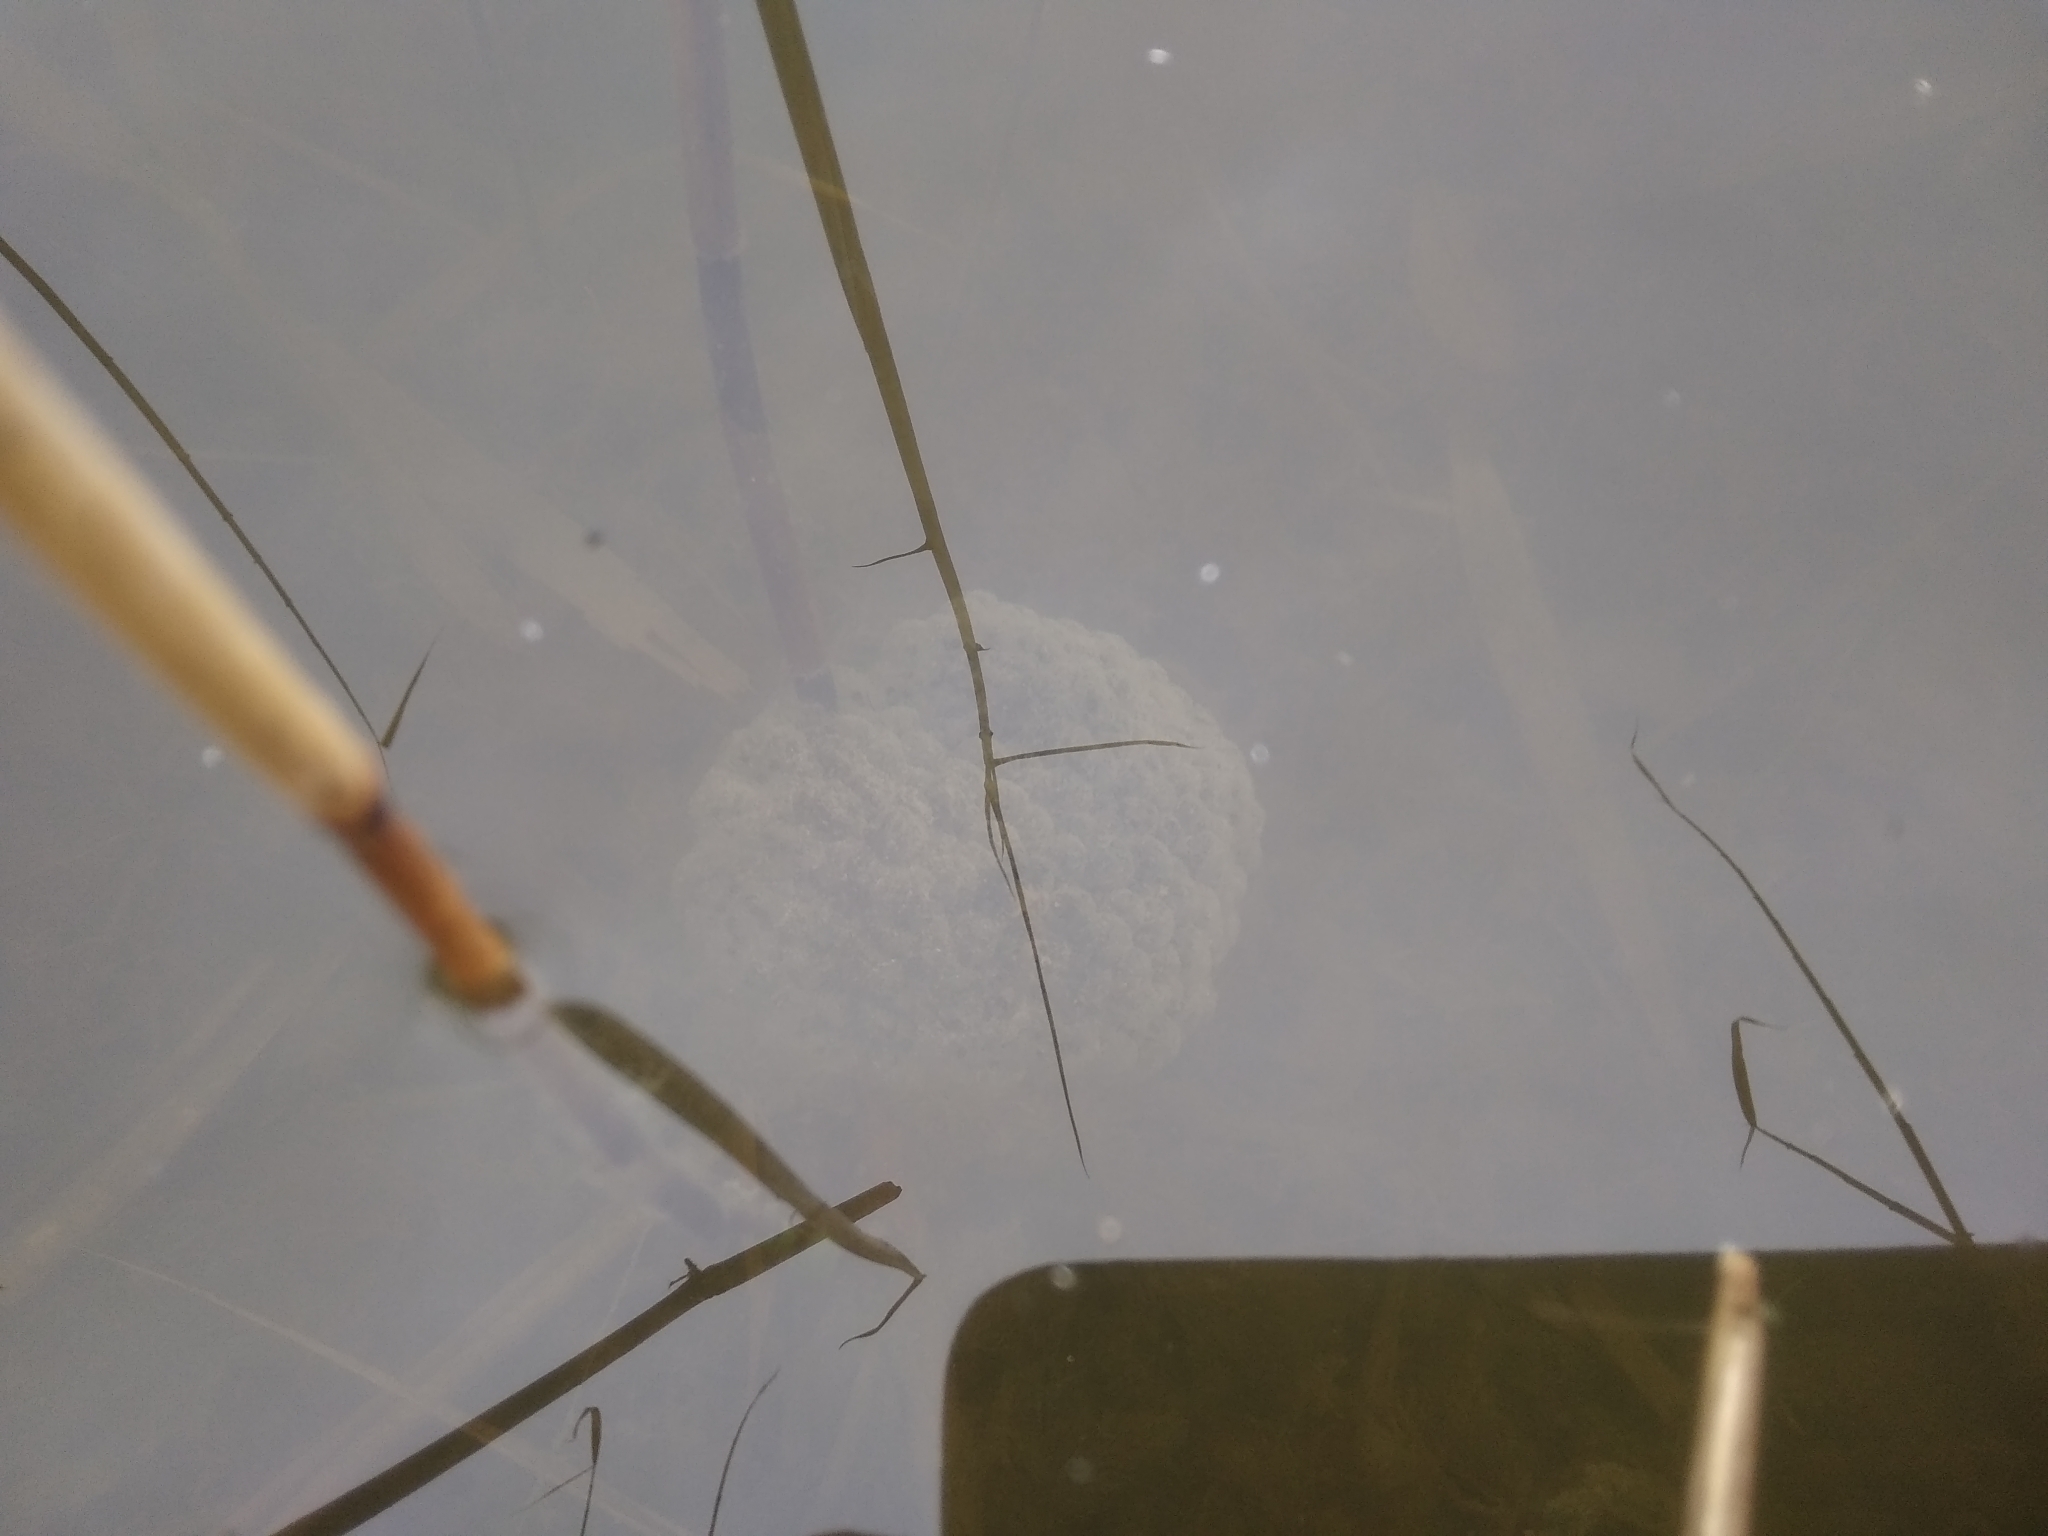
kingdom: Animalia
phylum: Chordata
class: Amphibia
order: Anura
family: Ranidae
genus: Rana
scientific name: Rana dalmatina
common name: Agile frog
